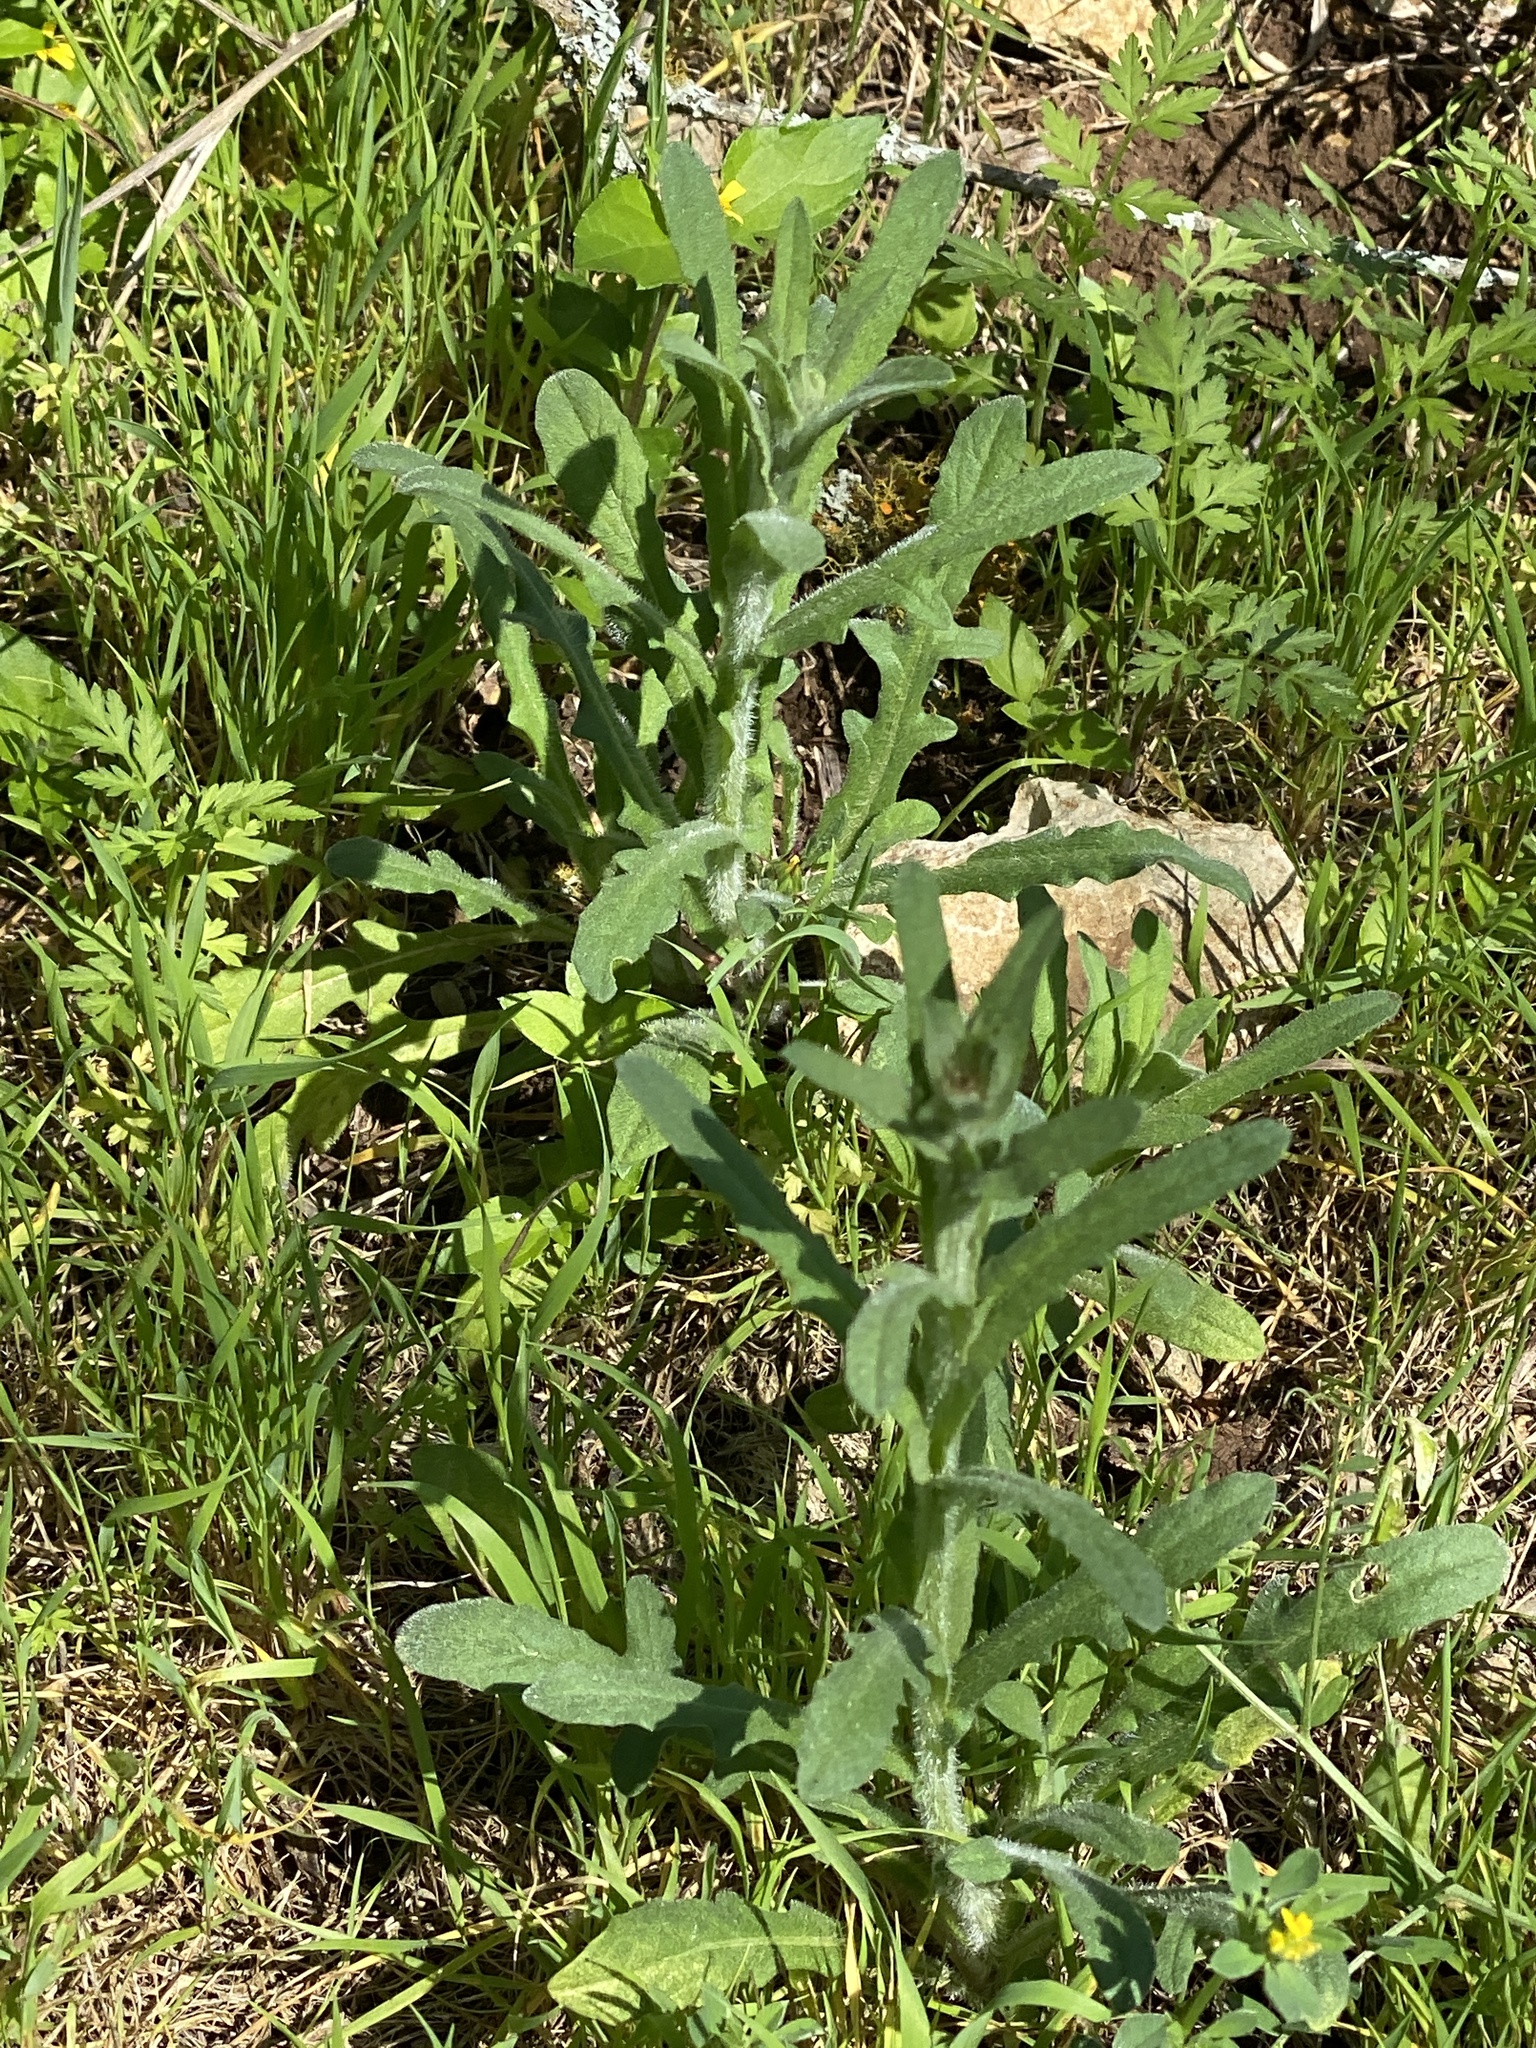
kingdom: Plantae
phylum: Tracheophyta
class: Magnoliopsida
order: Asterales
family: Asteraceae
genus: Centaurea
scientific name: Centaurea melitensis
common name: Maltese star-thistle
